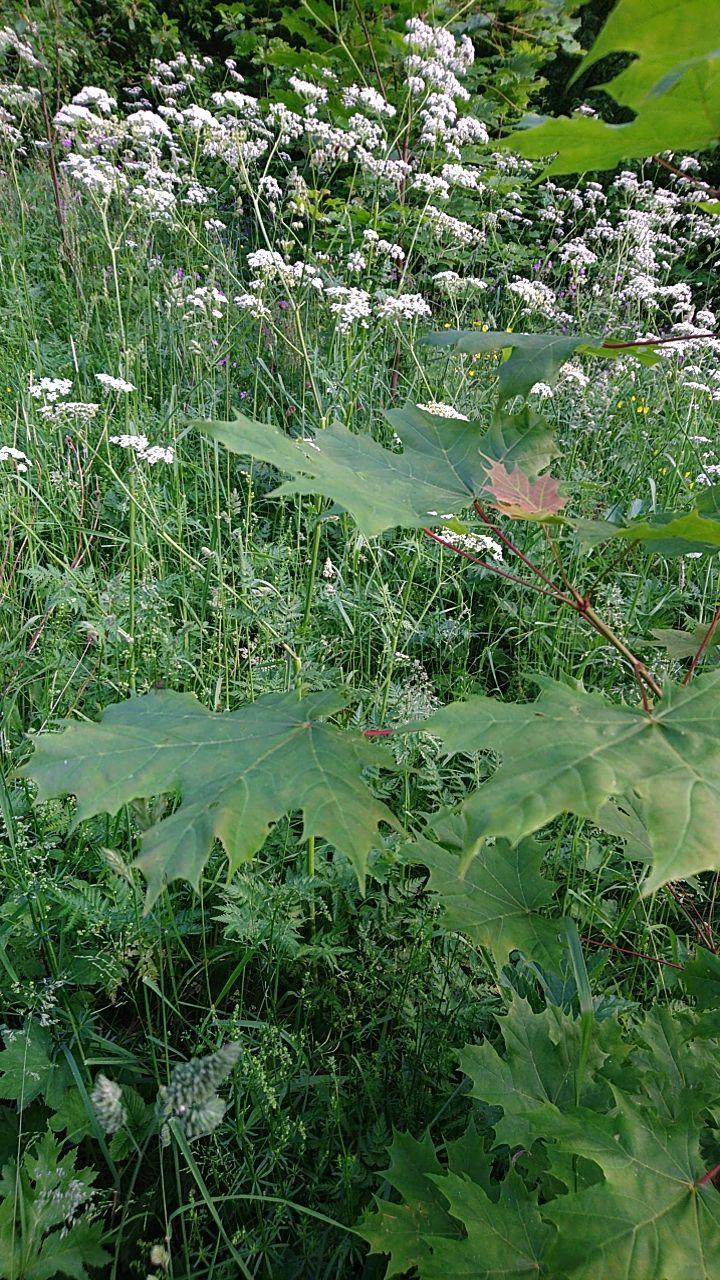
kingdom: Plantae
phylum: Tracheophyta
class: Magnoliopsida
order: Sapindales
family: Sapindaceae
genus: Acer
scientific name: Acer platanoides
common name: Norway maple
